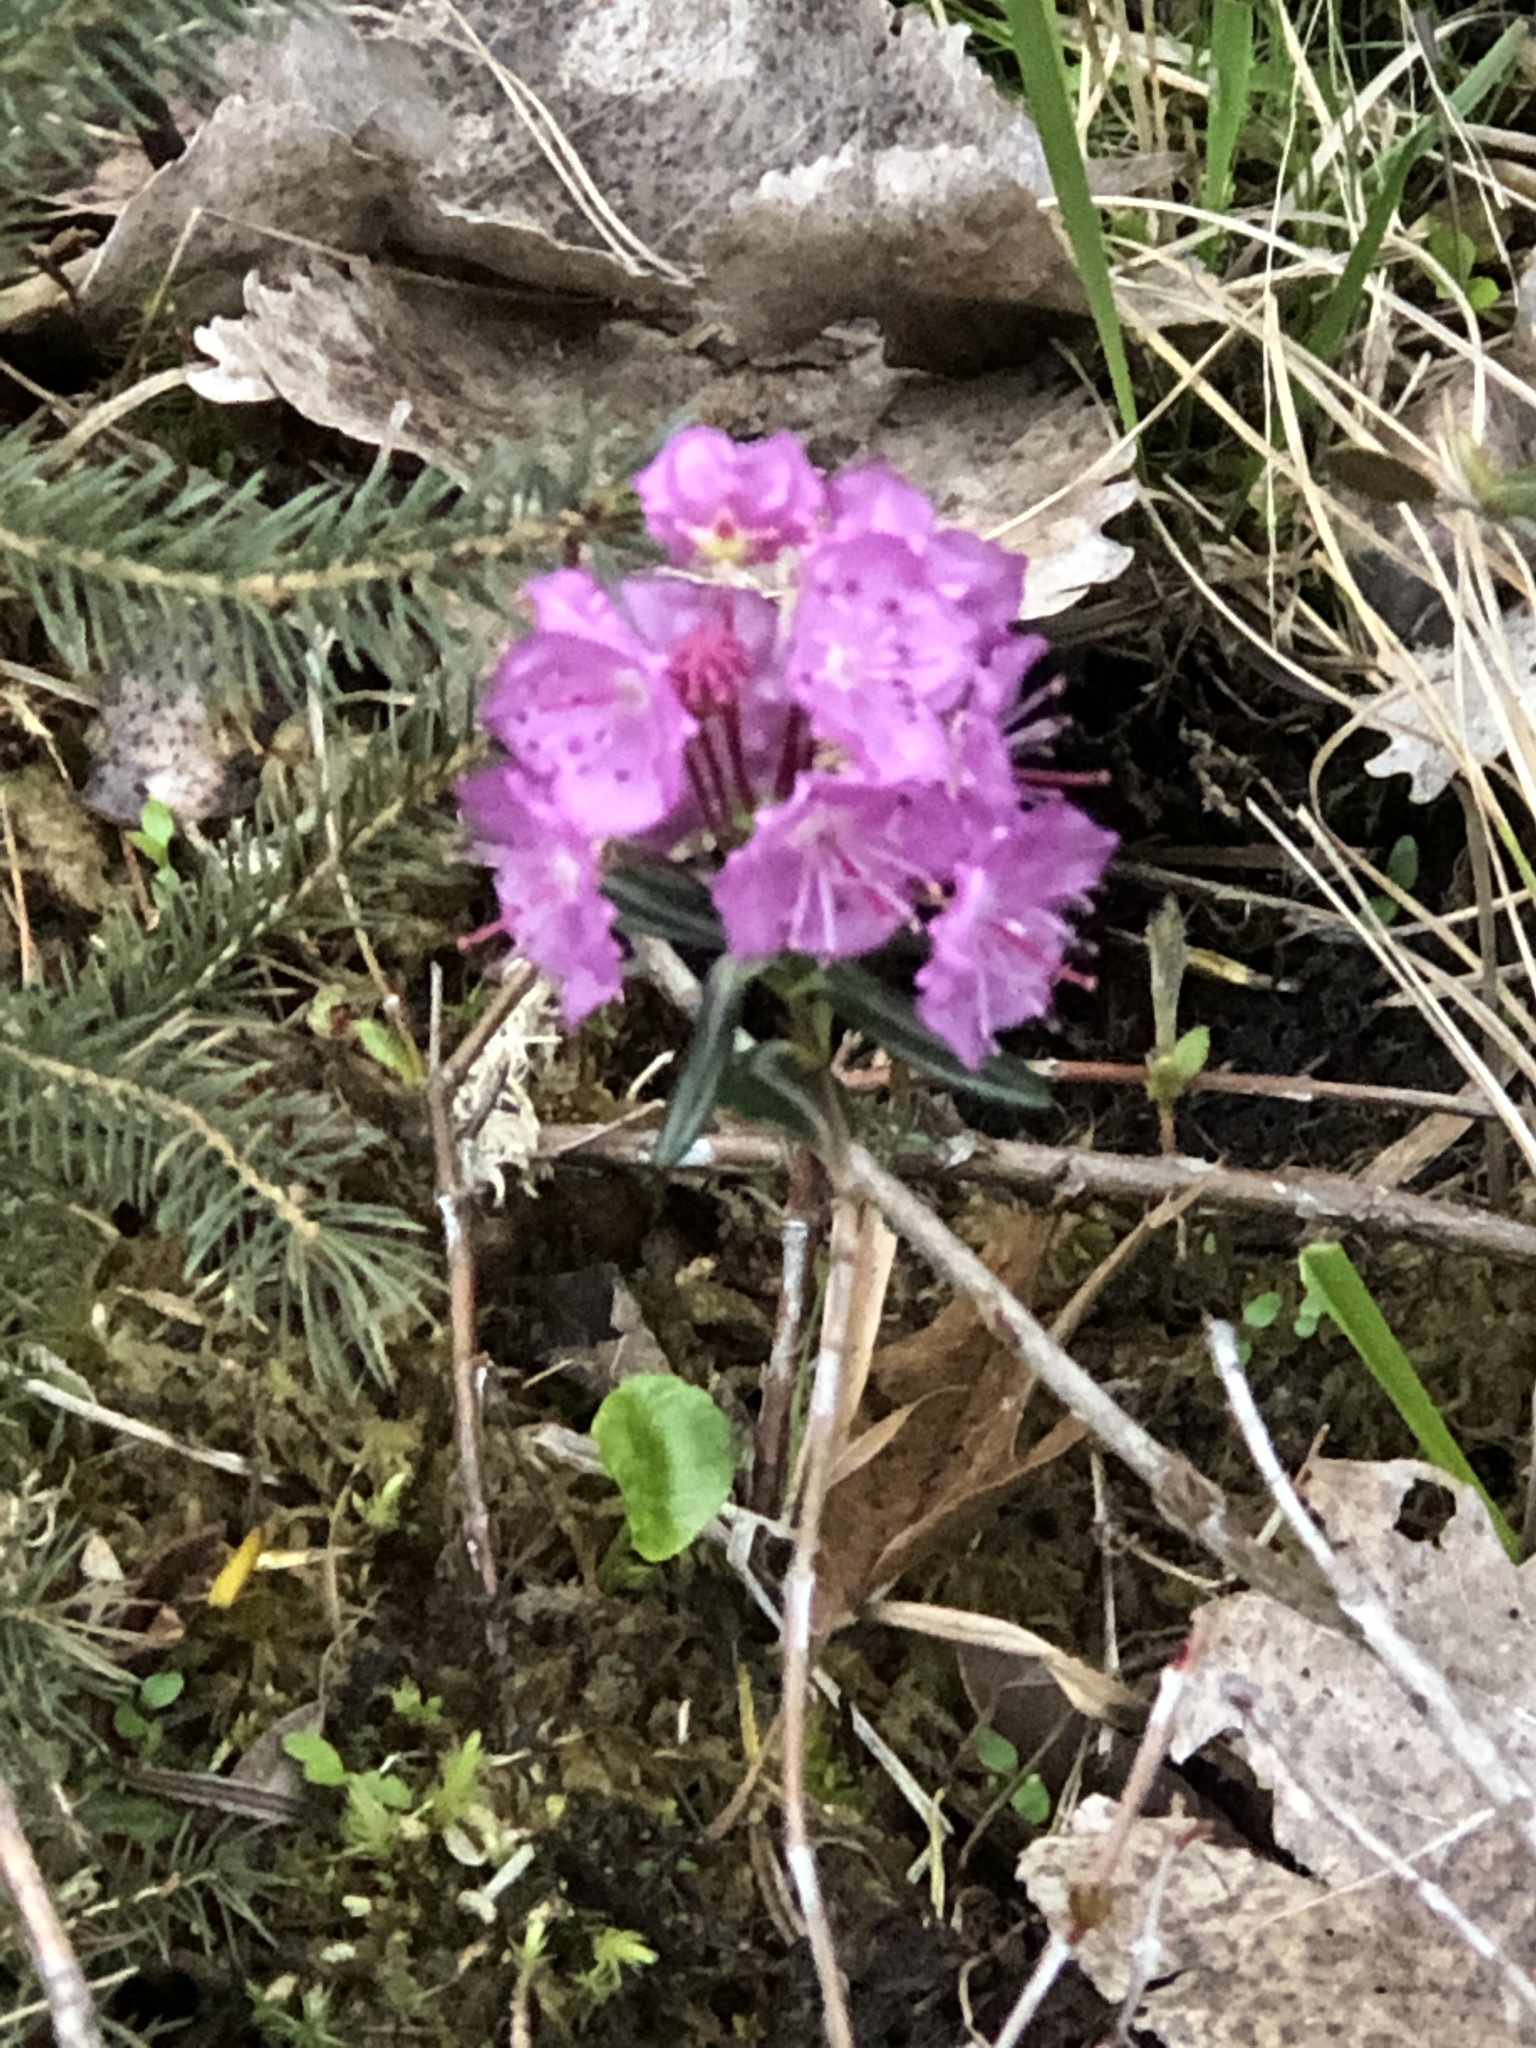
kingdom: Plantae
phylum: Tracheophyta
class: Magnoliopsida
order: Ericales
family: Ericaceae
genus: Kalmia
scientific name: Kalmia polifolia
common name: Bog-laurel
